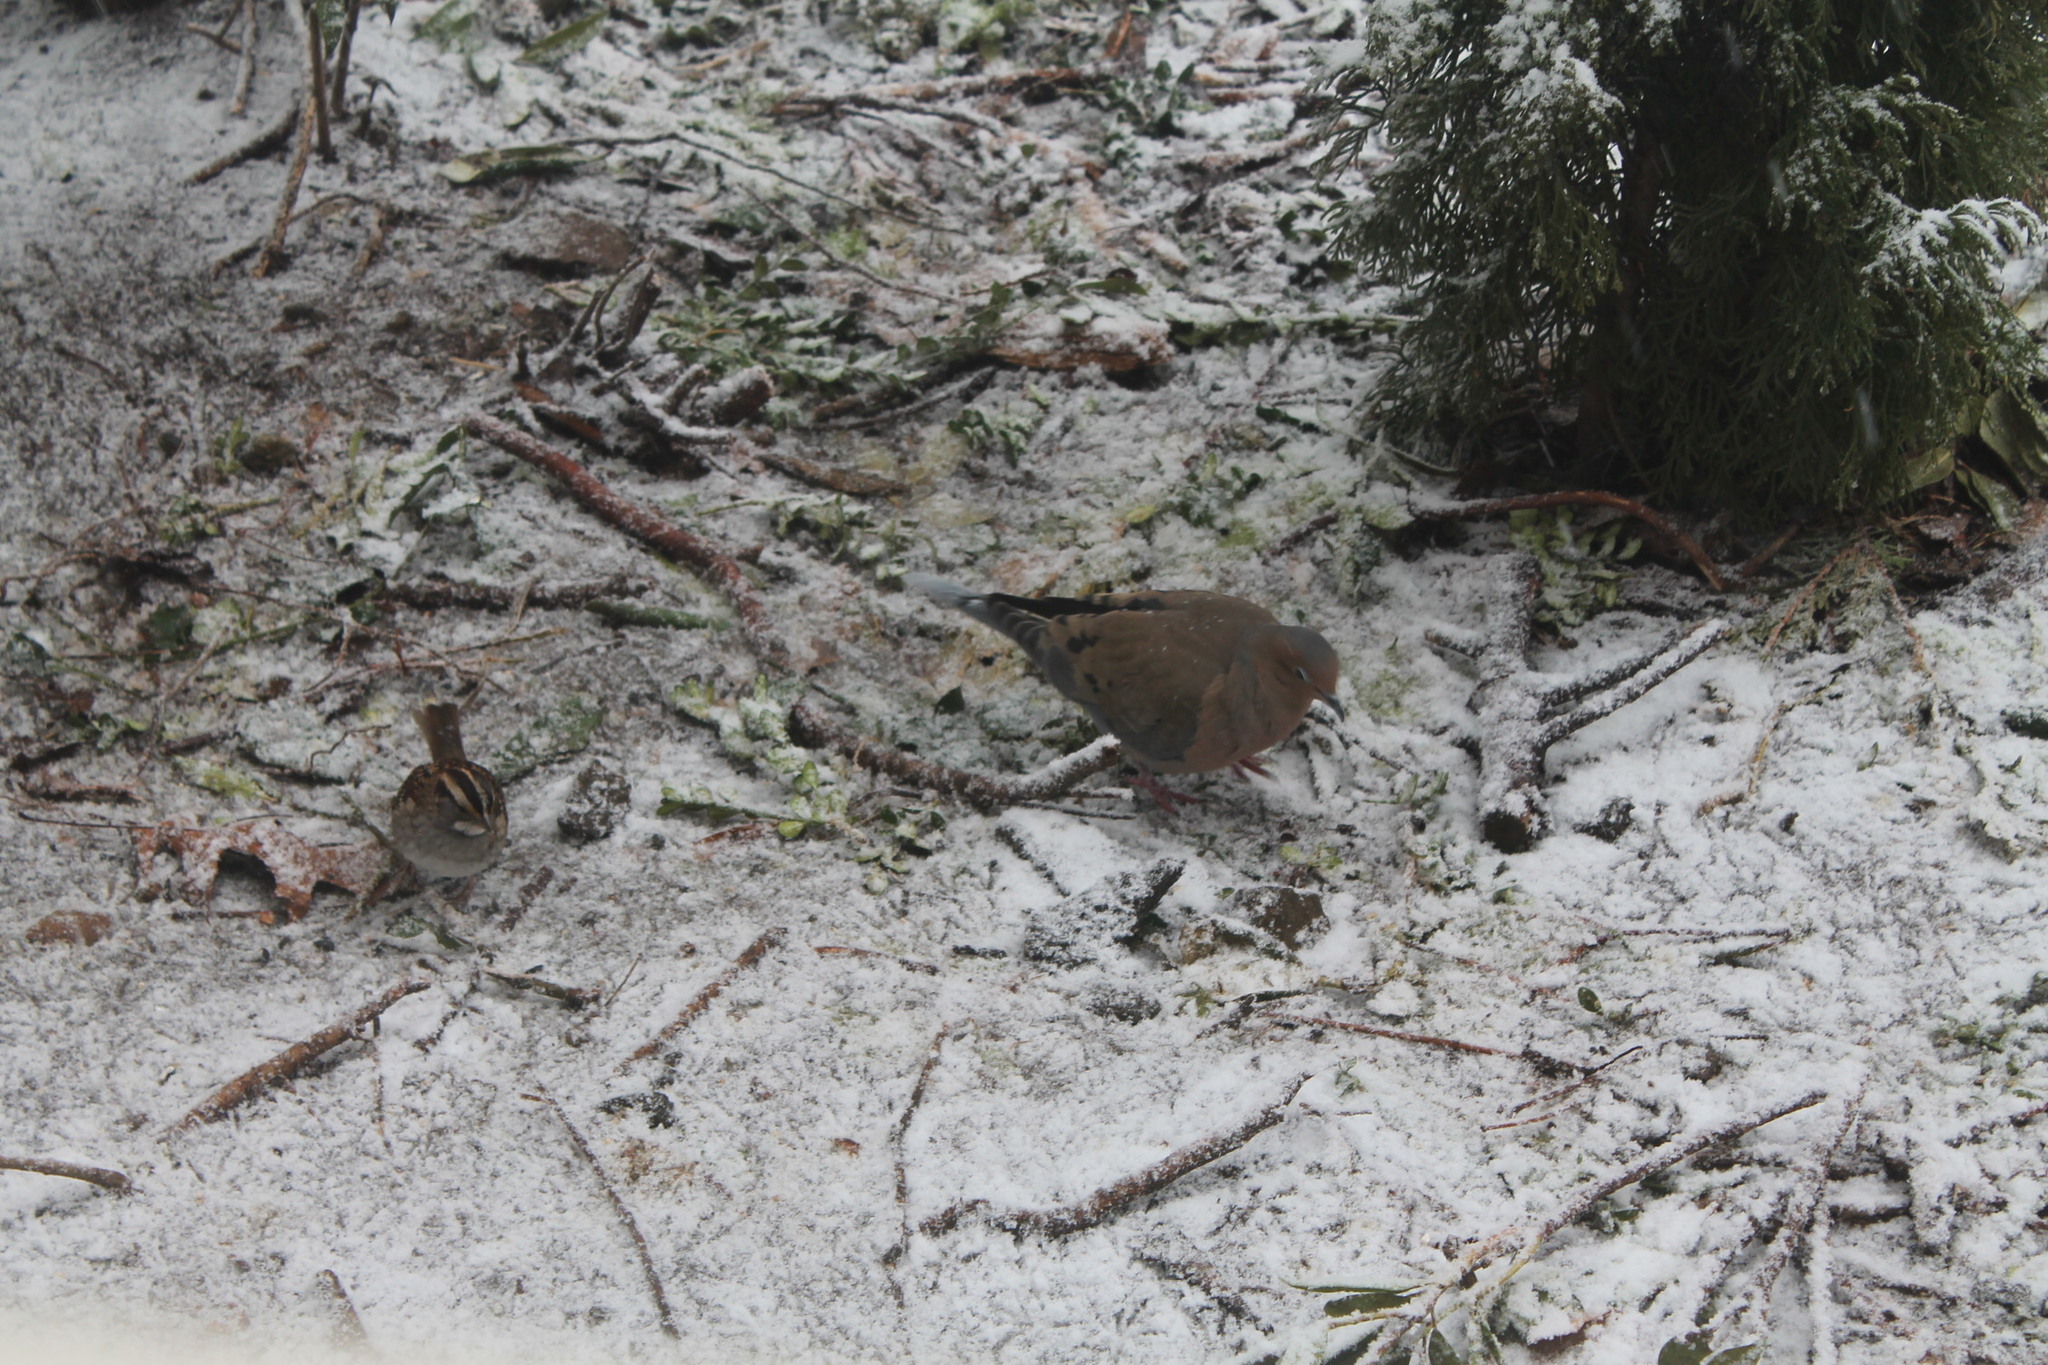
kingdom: Animalia
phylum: Chordata
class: Aves
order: Columbiformes
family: Columbidae
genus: Zenaida
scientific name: Zenaida macroura
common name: Mourning dove
